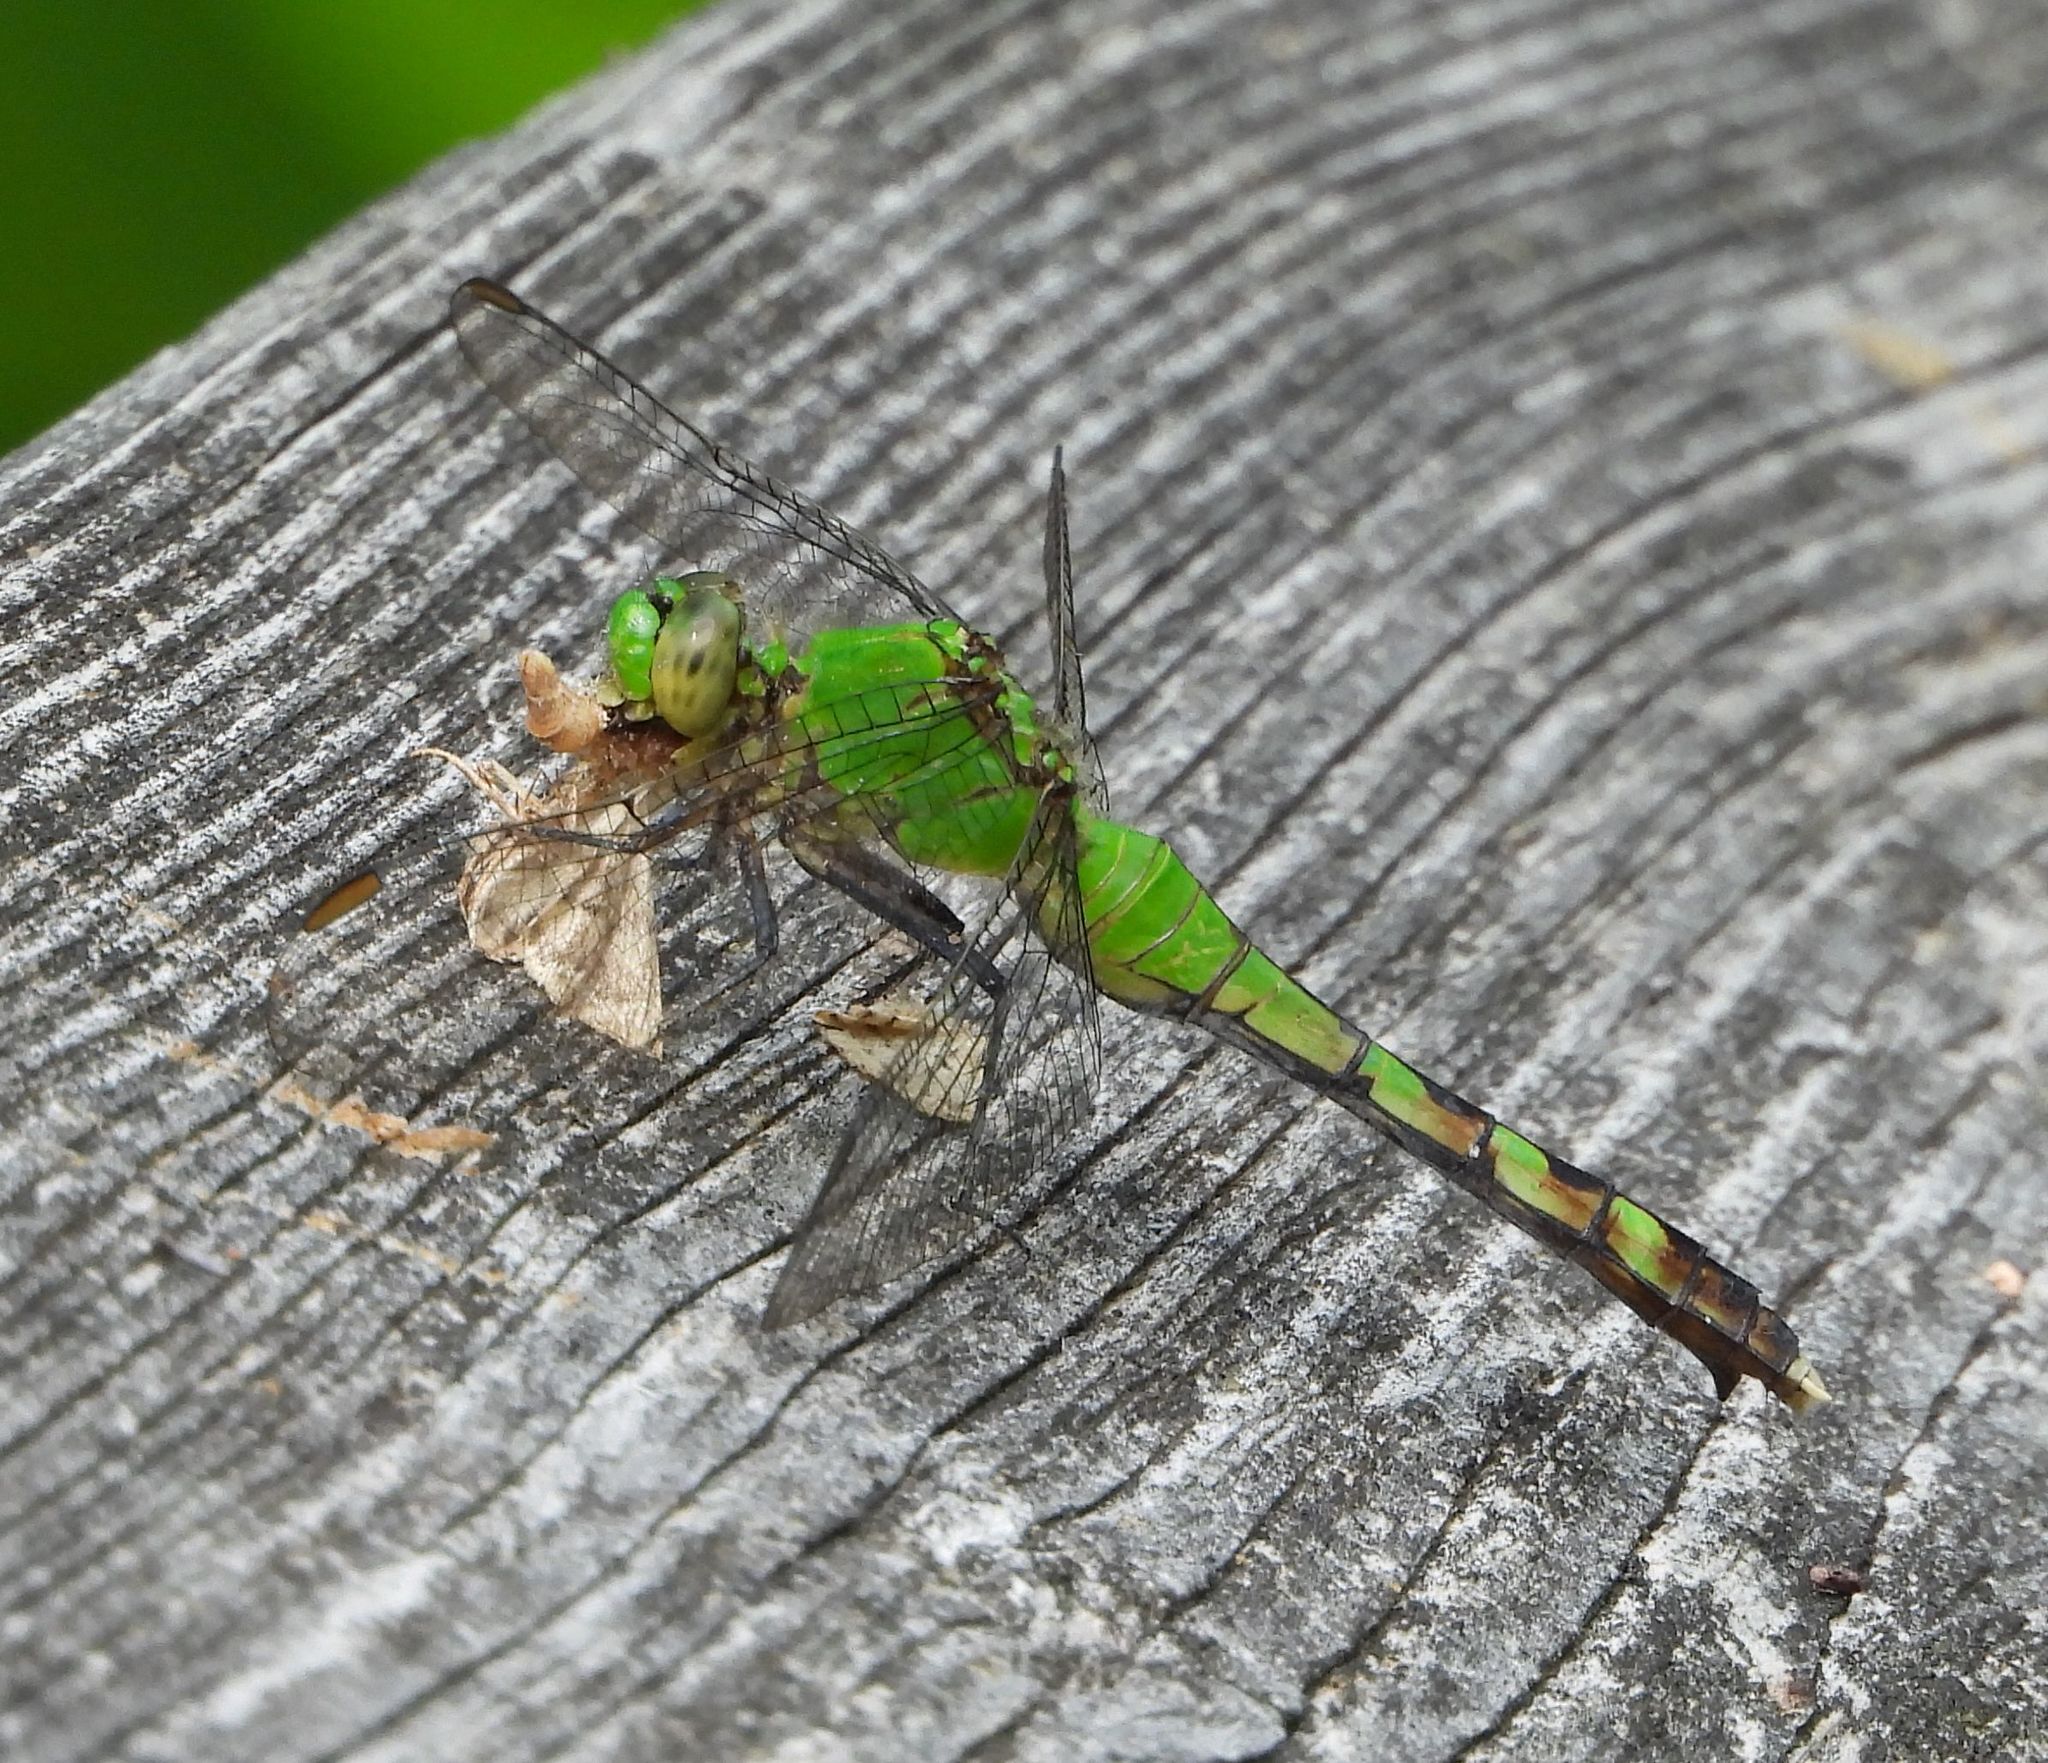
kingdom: Animalia
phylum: Arthropoda
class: Insecta
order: Odonata
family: Libellulidae
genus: Erythemis
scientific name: Erythemis simplicicollis
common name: Eastern pondhawk
